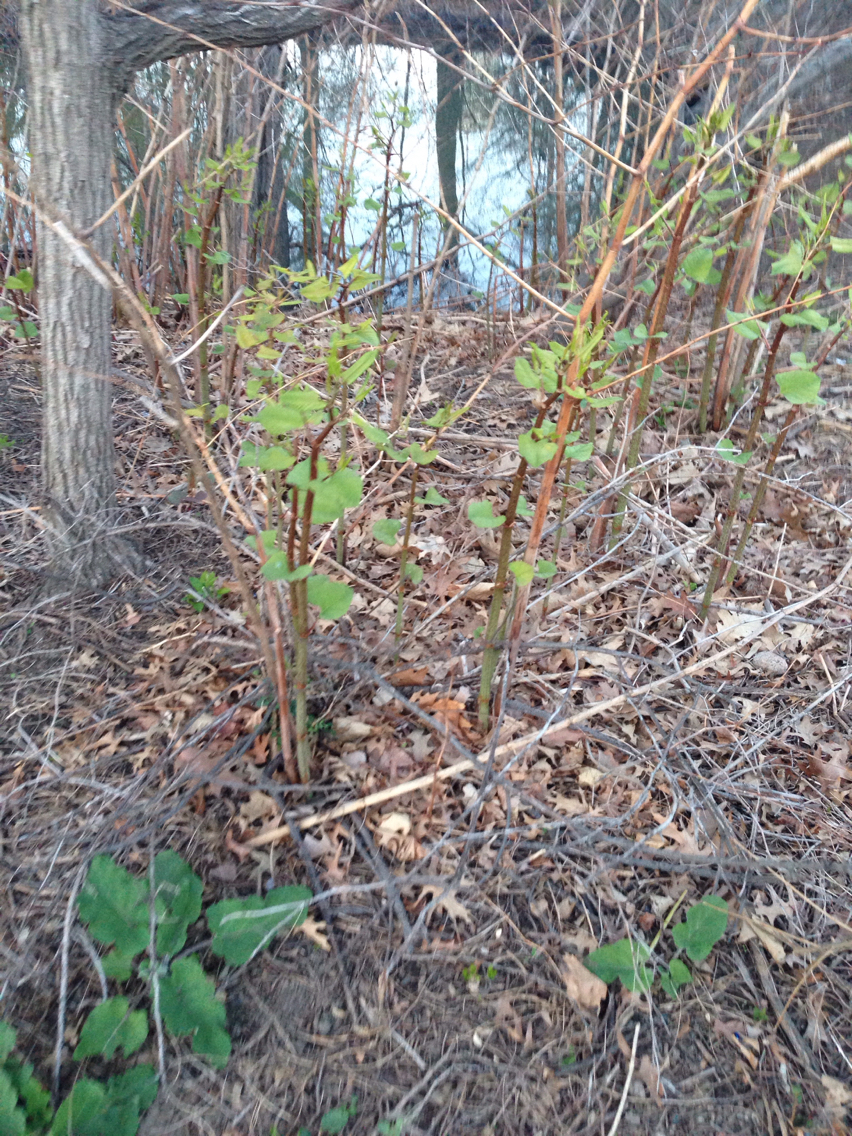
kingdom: Plantae
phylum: Tracheophyta
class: Magnoliopsida
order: Caryophyllales
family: Polygonaceae
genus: Reynoutria
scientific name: Reynoutria japonica
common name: Japanese knotweed
